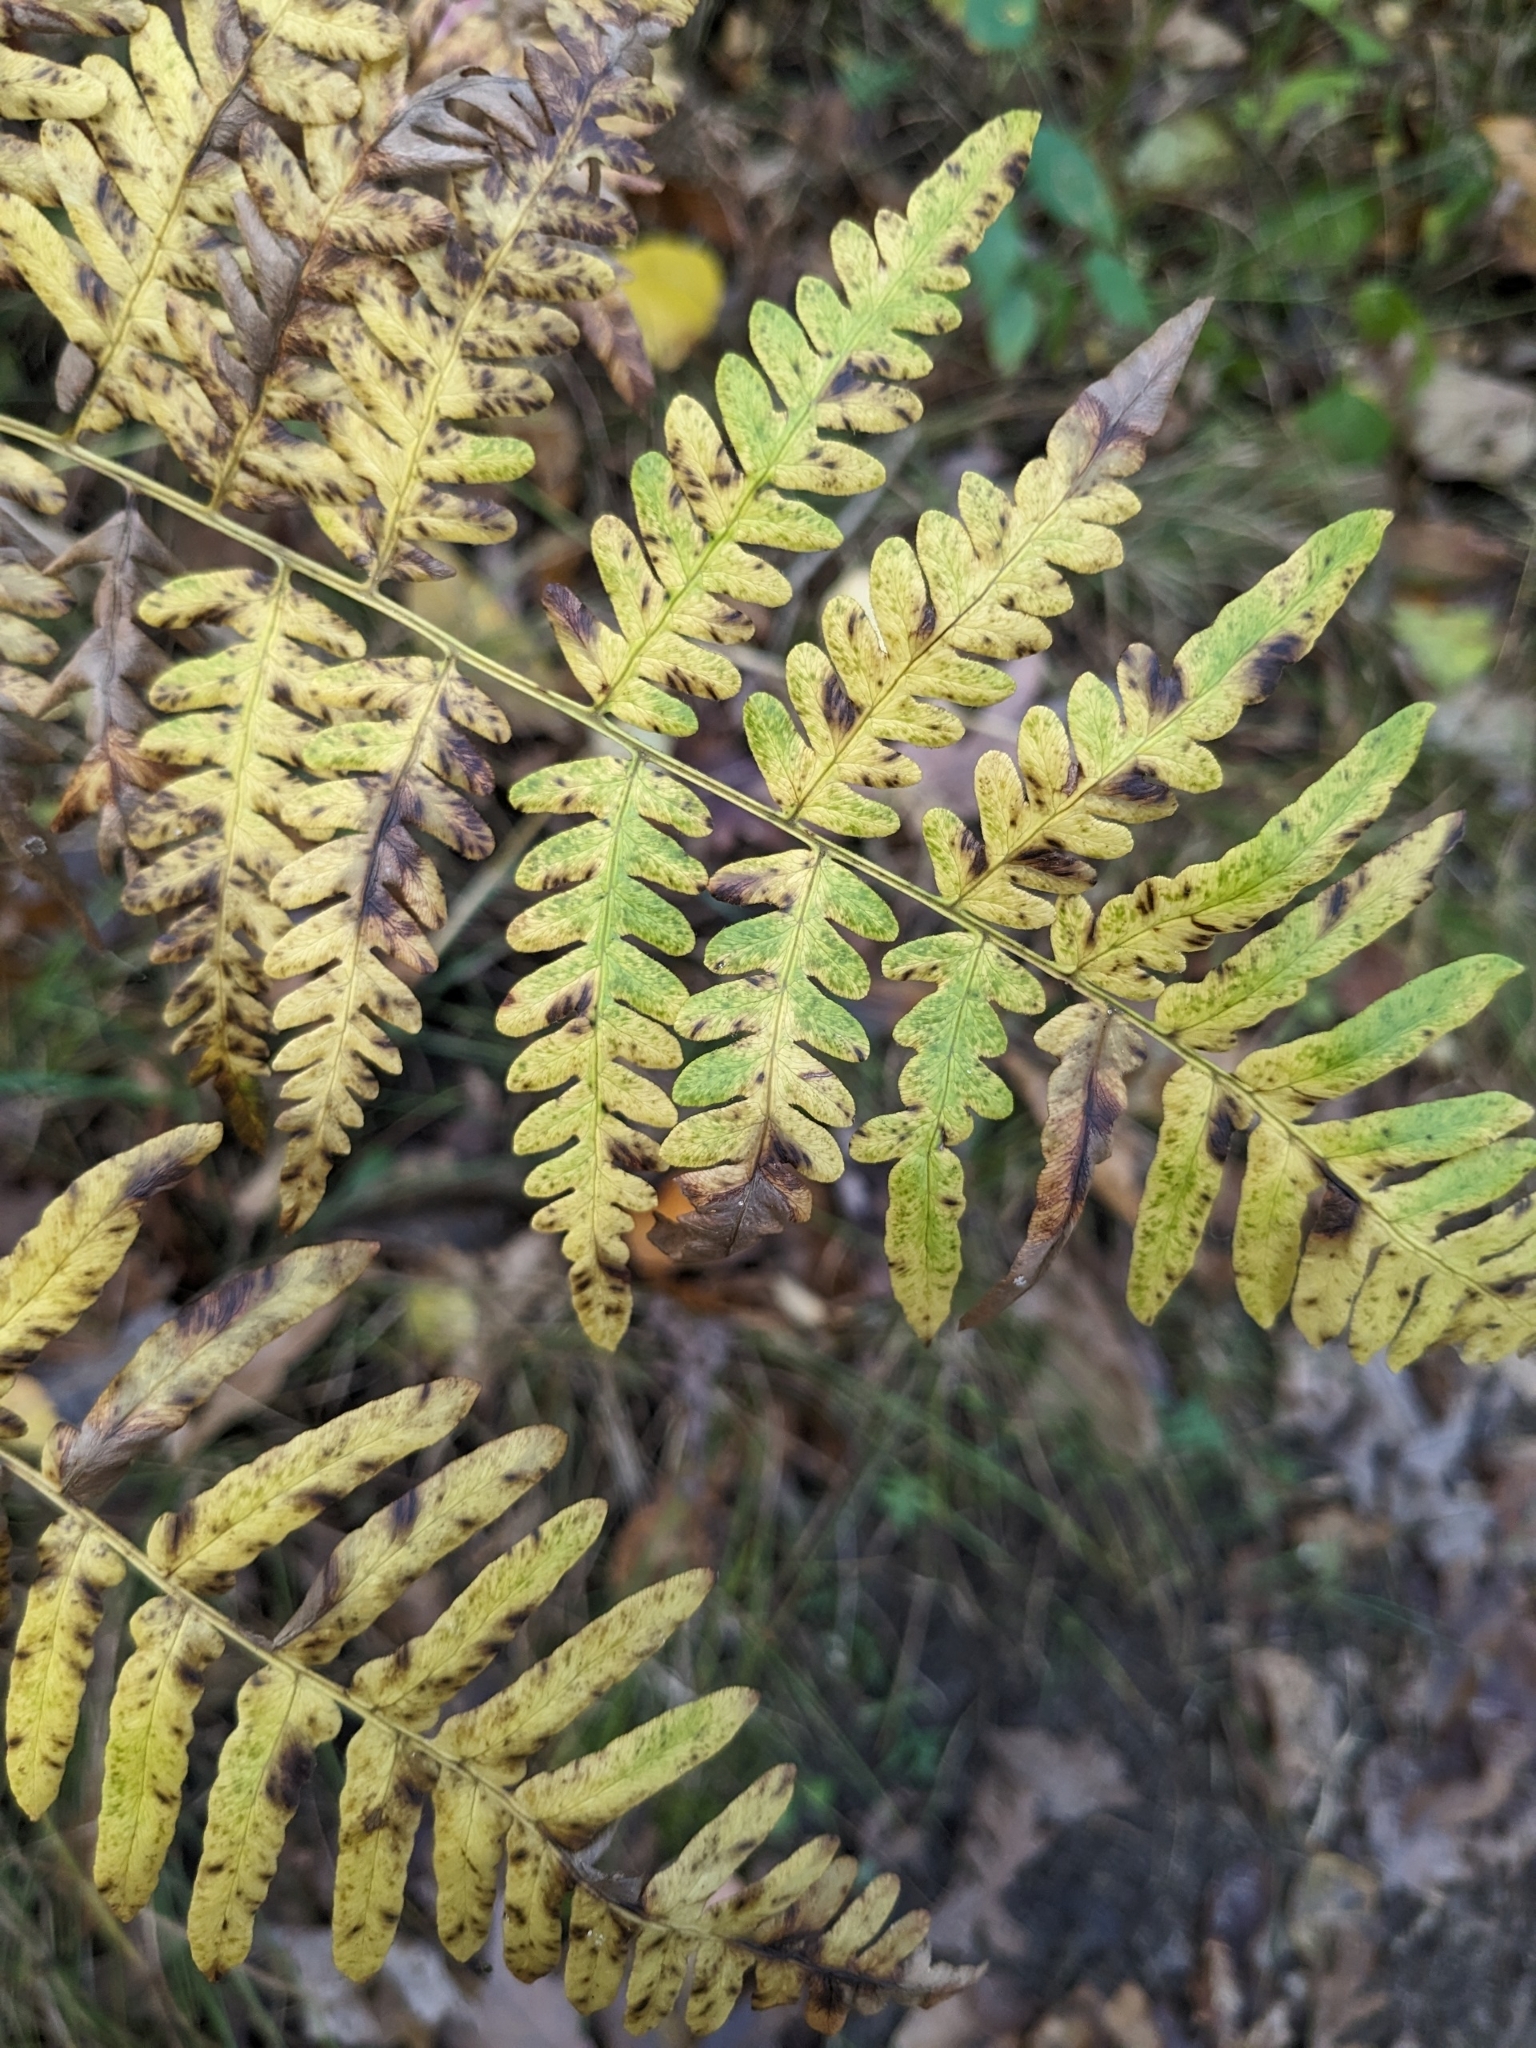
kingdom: Plantae
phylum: Tracheophyta
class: Polypodiopsida
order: Polypodiales
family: Dennstaedtiaceae
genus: Pteridium
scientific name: Pteridium aquilinum
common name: Bracken
